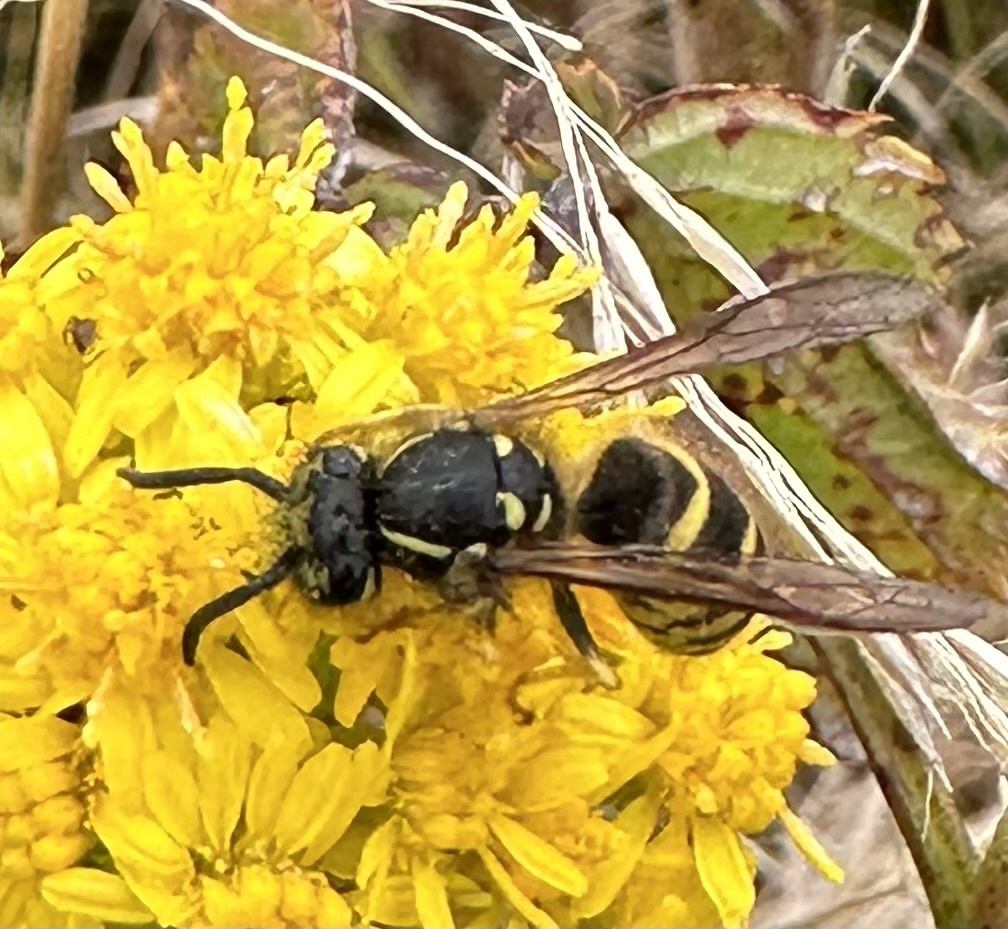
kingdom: Animalia
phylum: Arthropoda
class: Insecta
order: Hymenoptera
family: Vespidae
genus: Vespula
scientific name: Vespula alascensis
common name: Alaska yellowjacket
